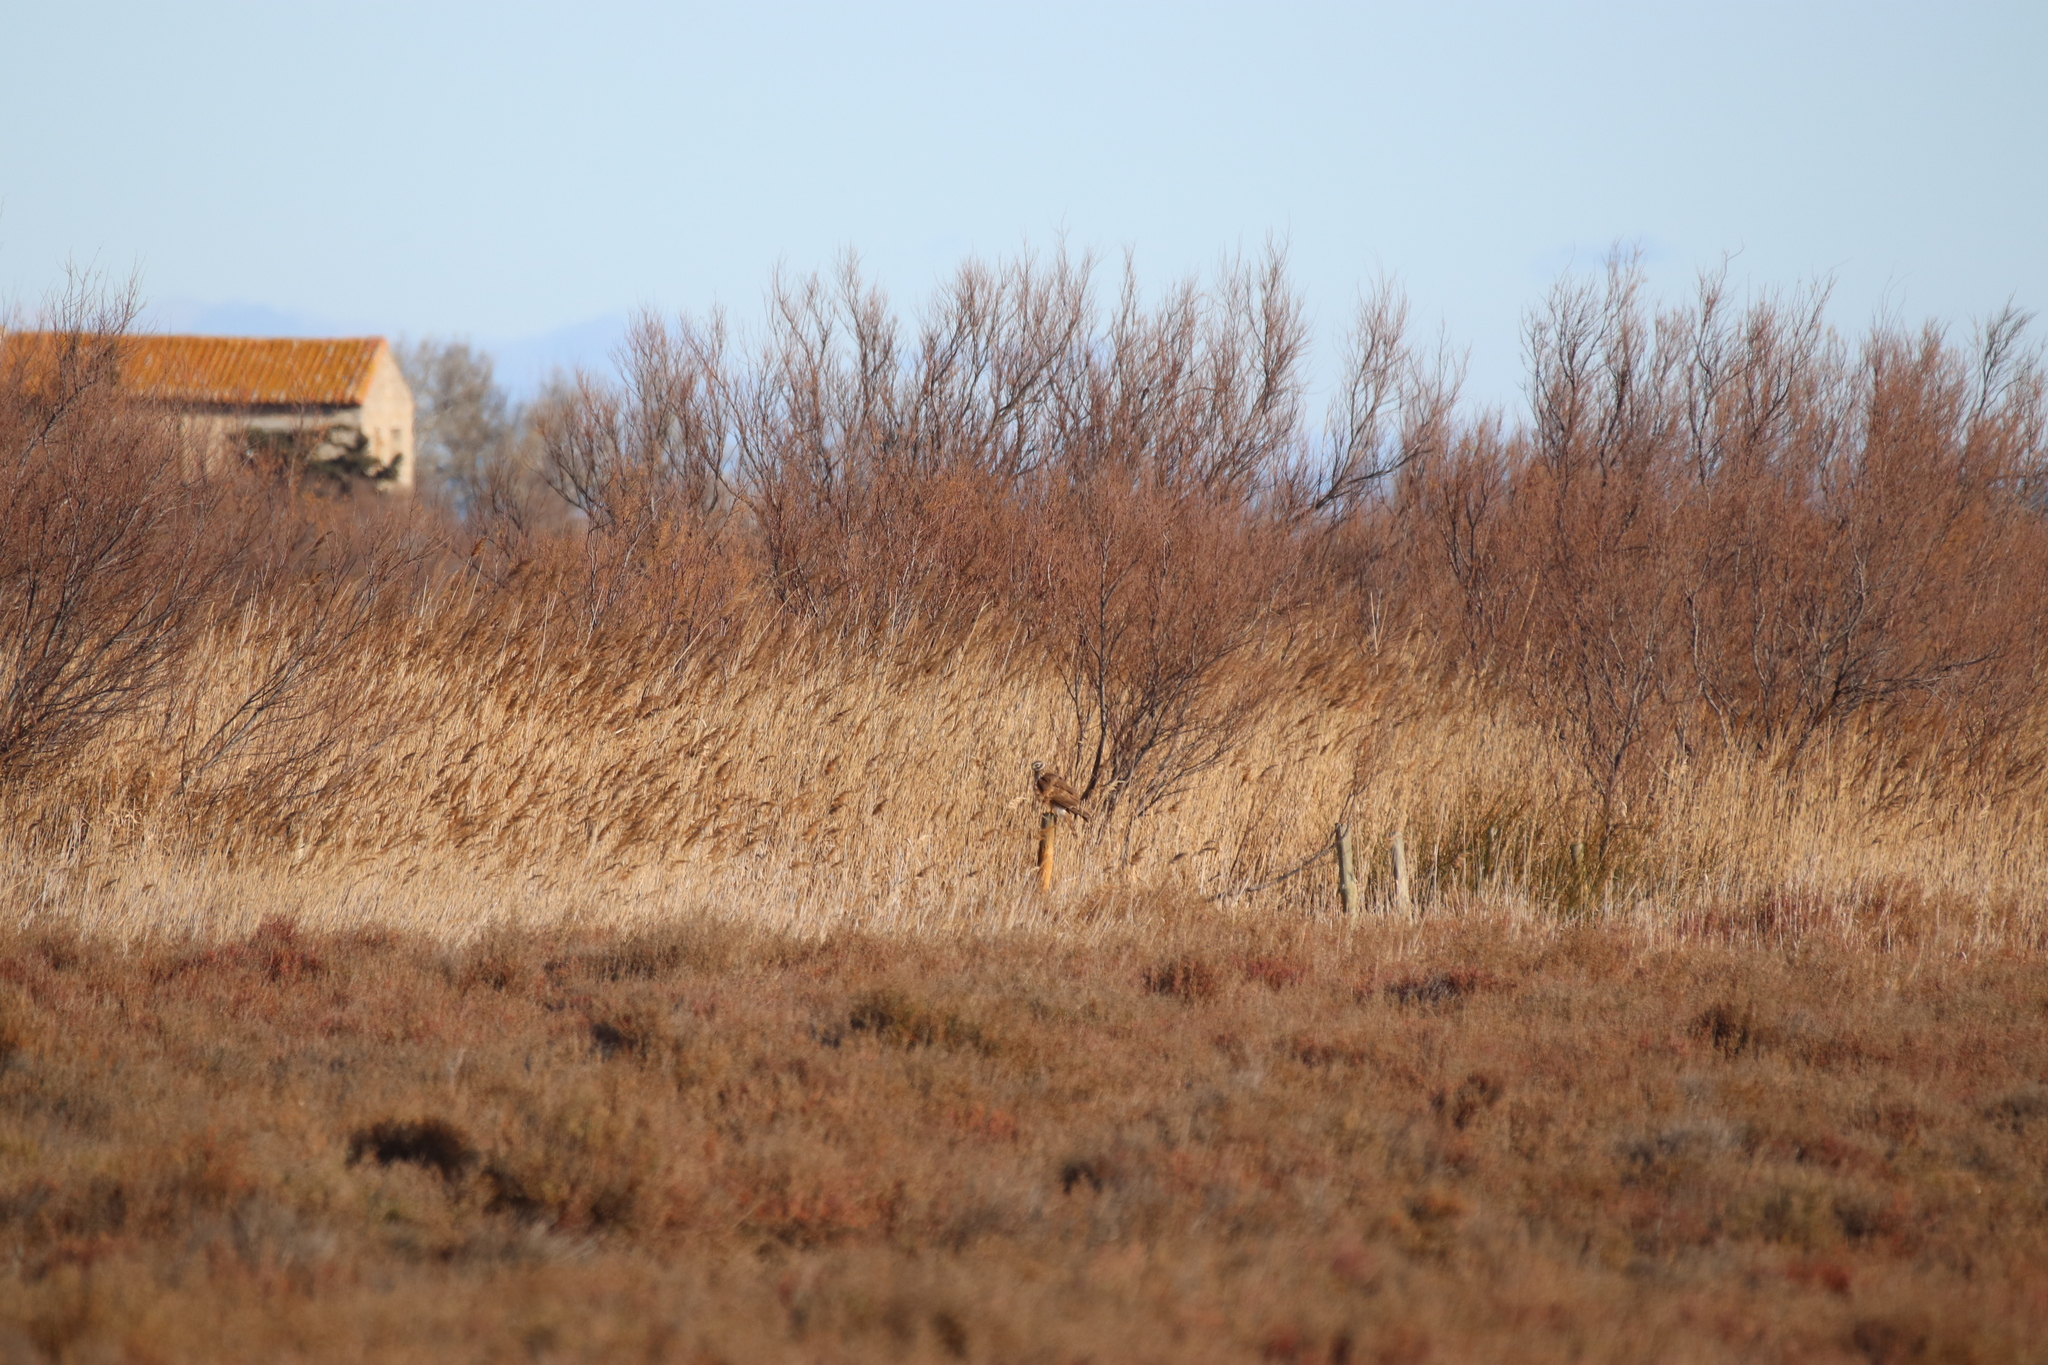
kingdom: Animalia
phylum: Chordata
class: Aves
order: Accipitriformes
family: Accipitridae
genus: Circus
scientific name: Circus cyaneus
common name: Hen harrier
